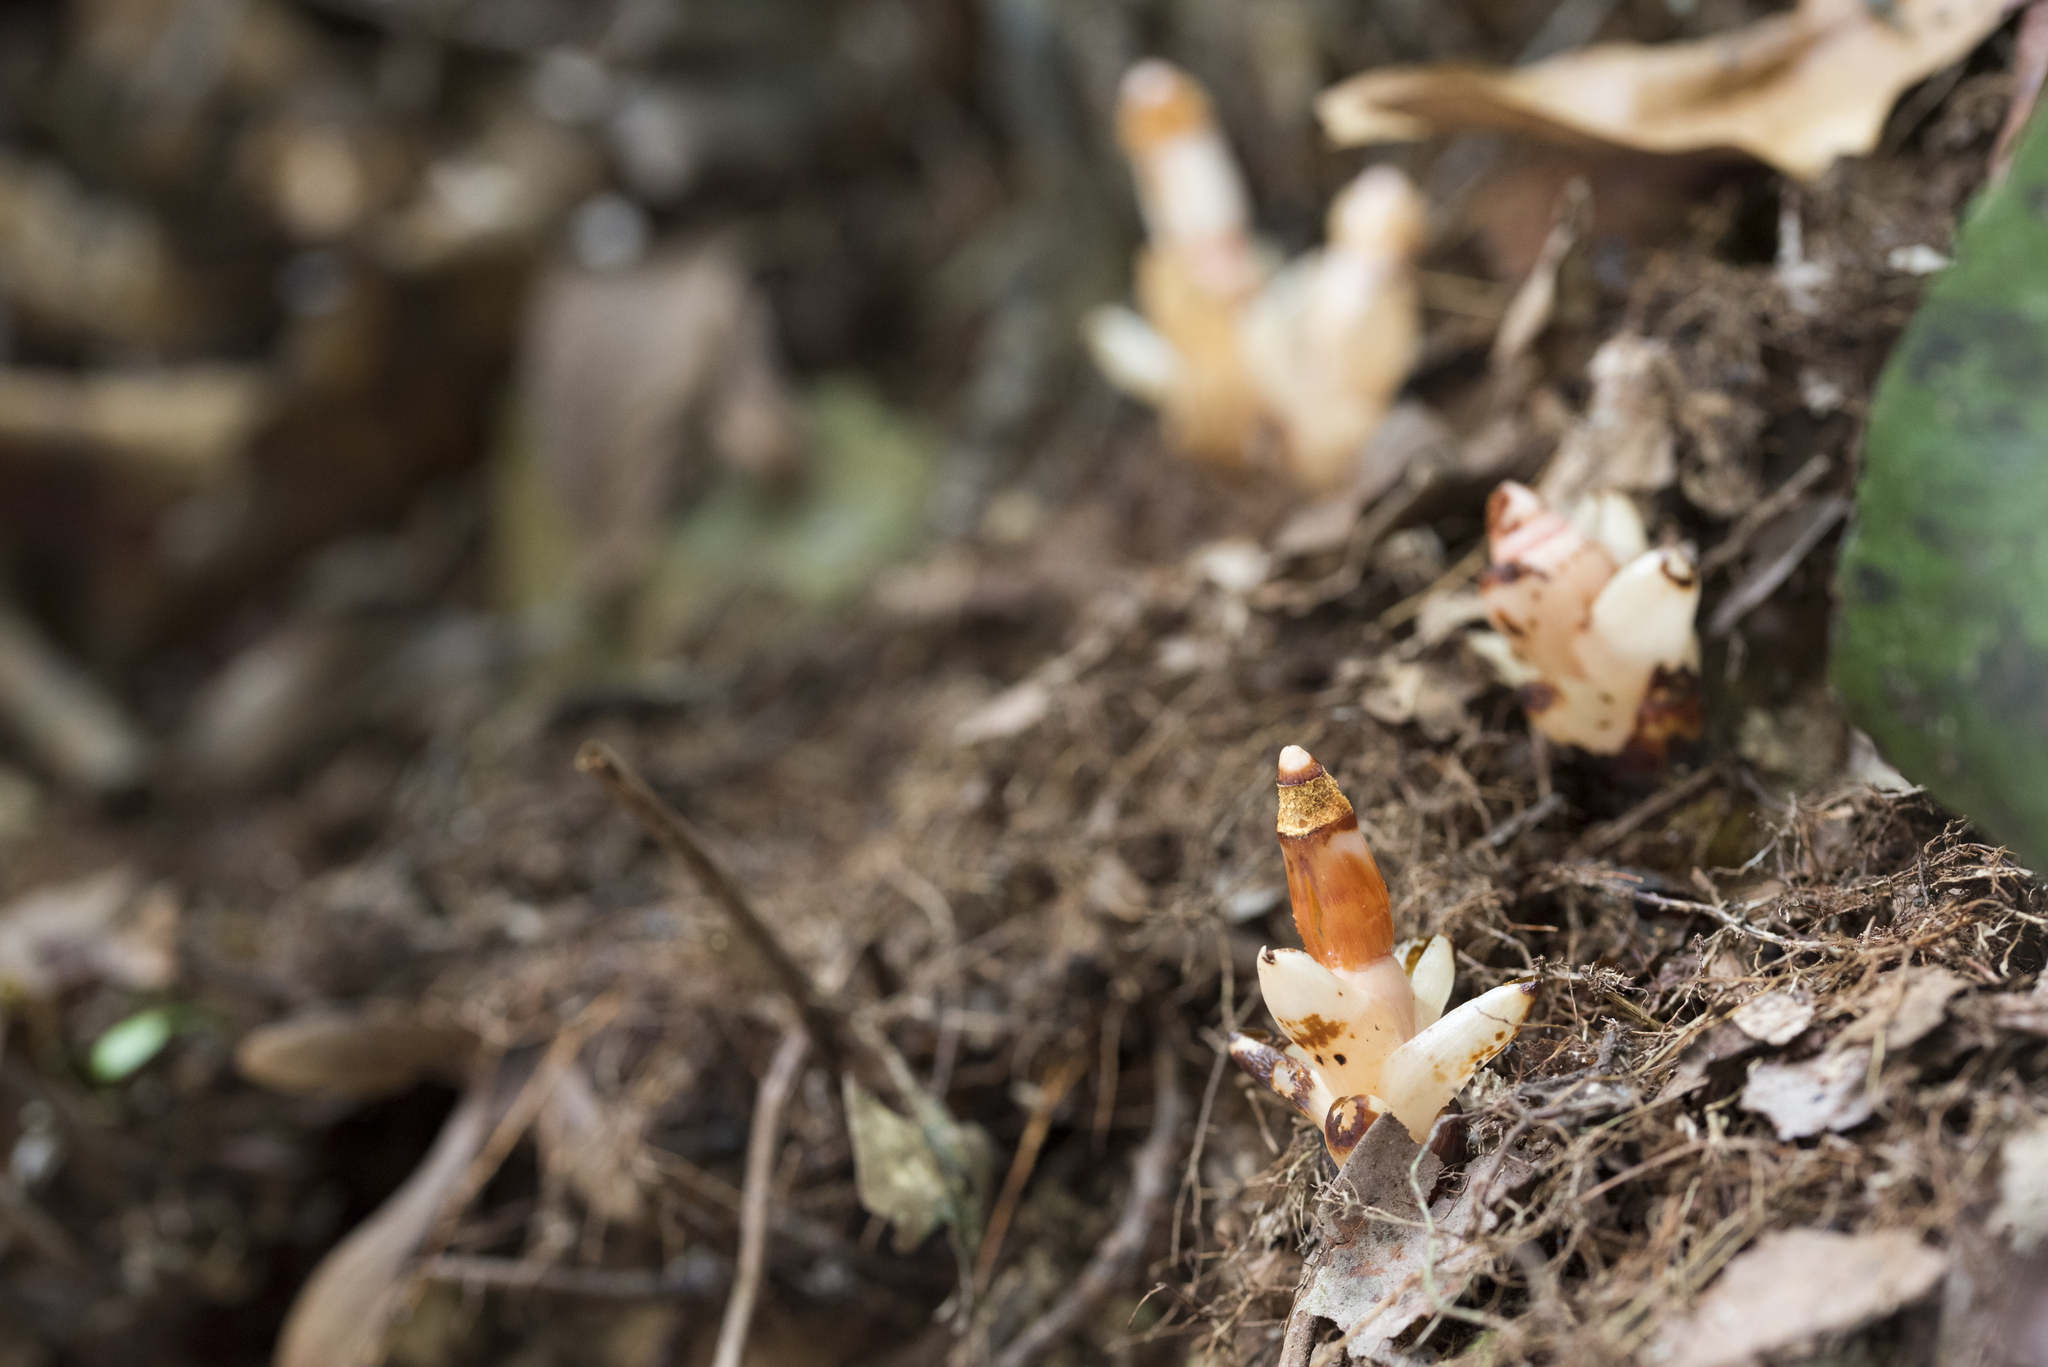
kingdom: Plantae
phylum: Tracheophyta
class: Magnoliopsida
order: Ericales
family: Mitrastemonaceae
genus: Mitrastemon
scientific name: Mitrastemon yamamotoi
